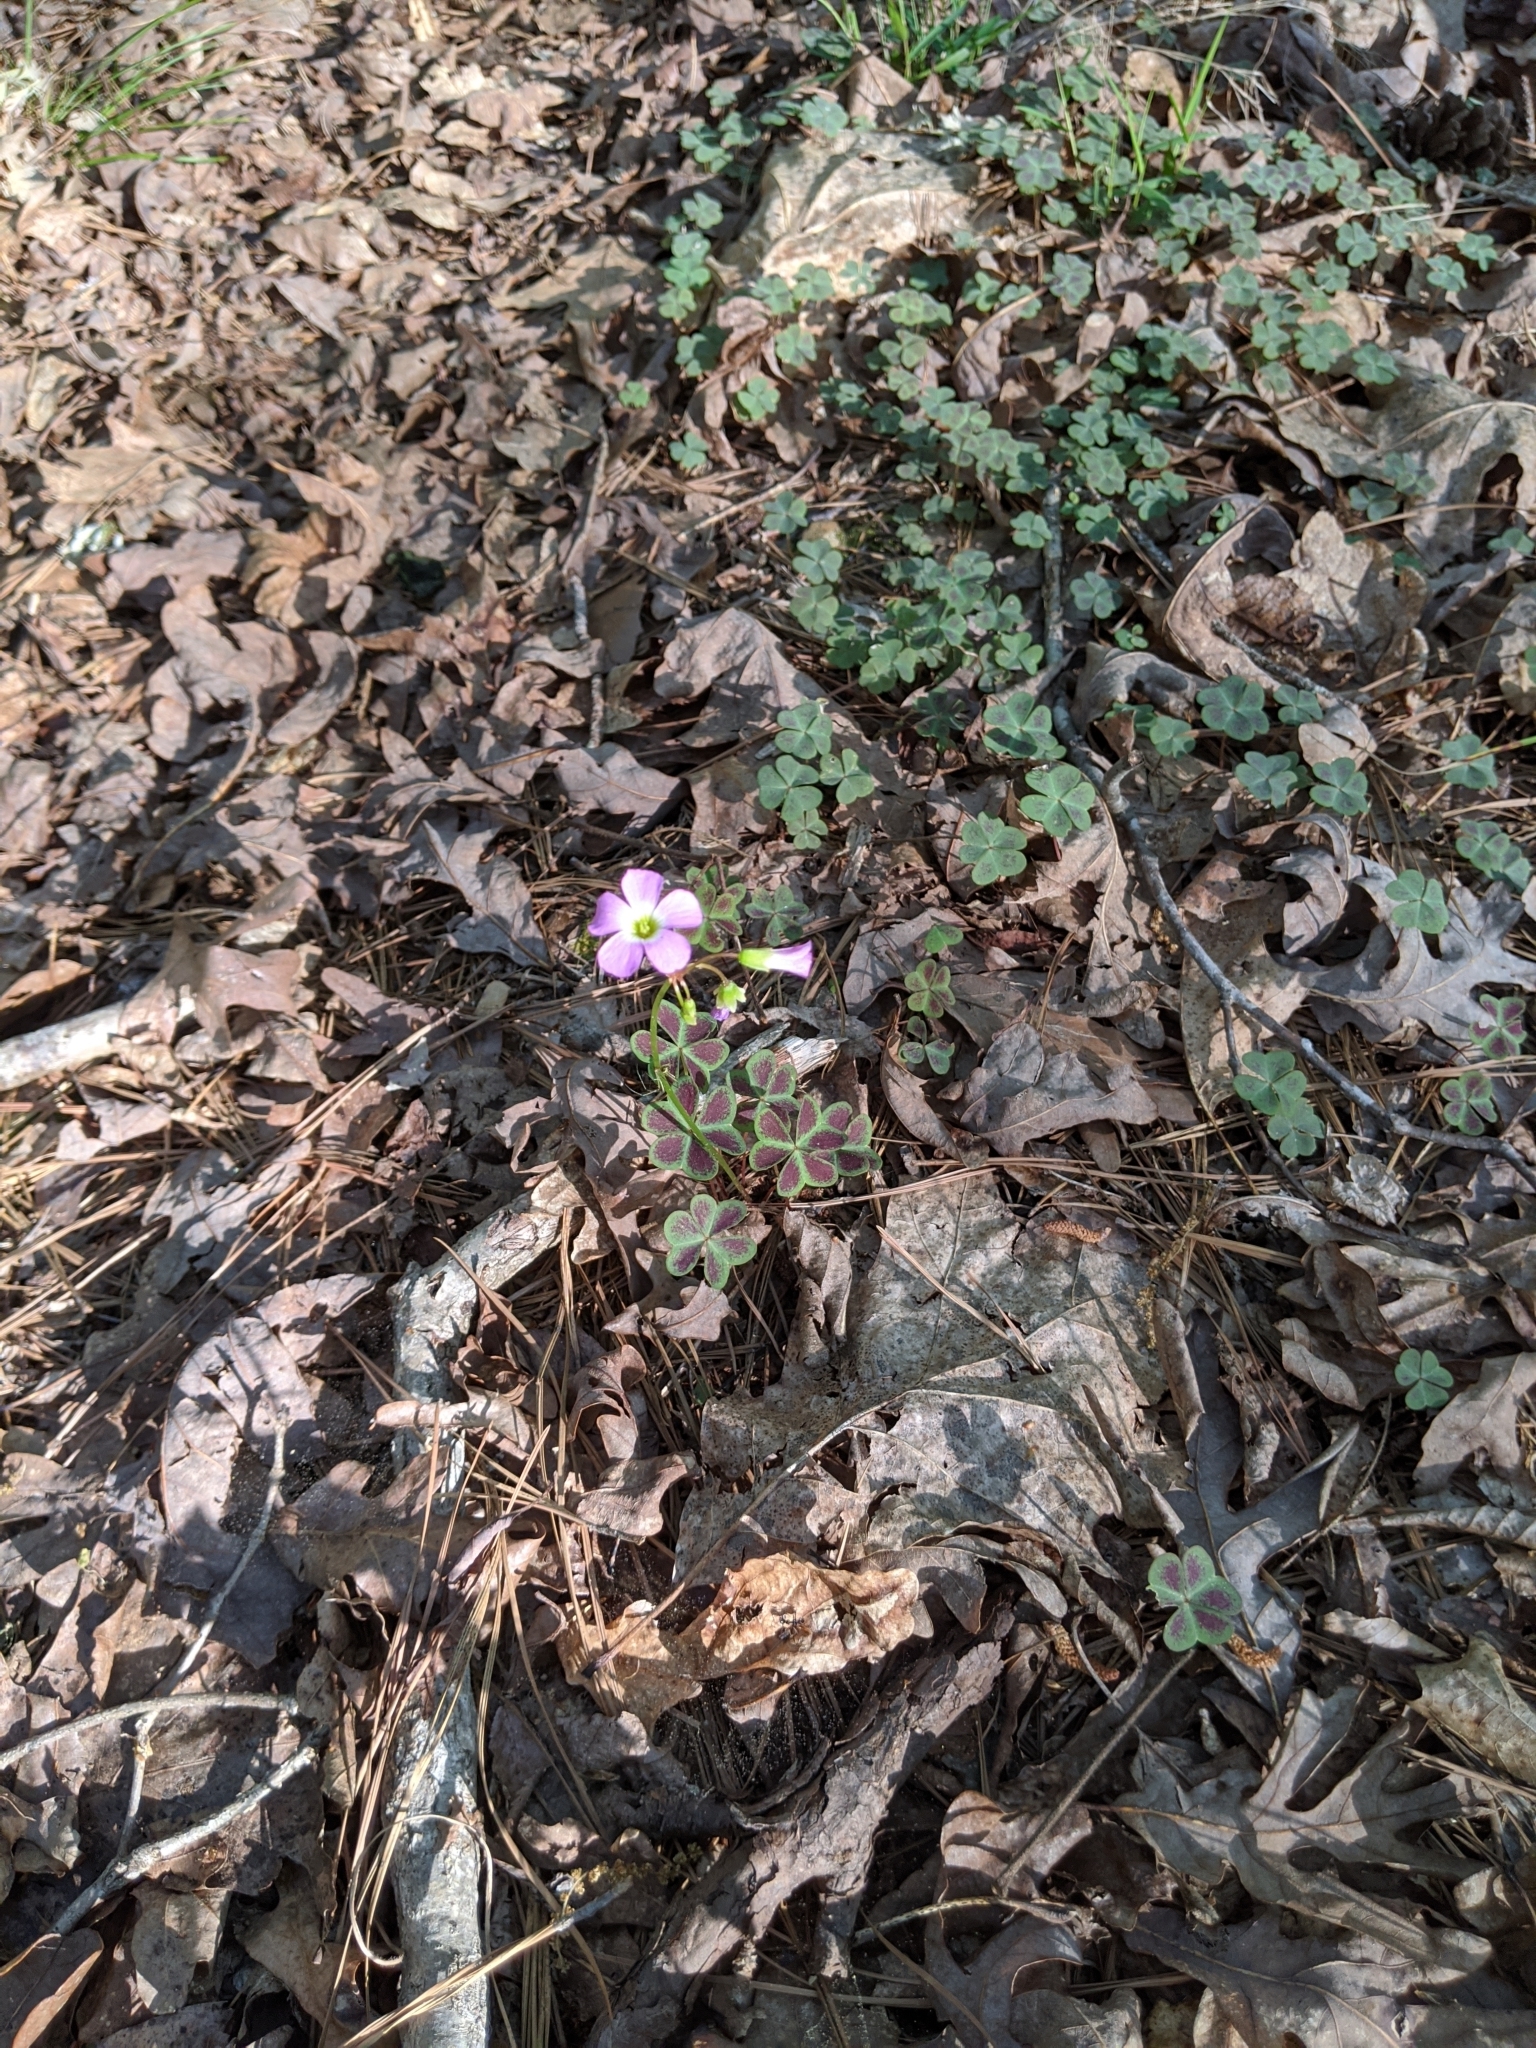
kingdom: Plantae
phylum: Tracheophyta
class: Magnoliopsida
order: Oxalidales
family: Oxalidaceae
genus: Oxalis
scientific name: Oxalis violacea
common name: Violet wood-sorrel
